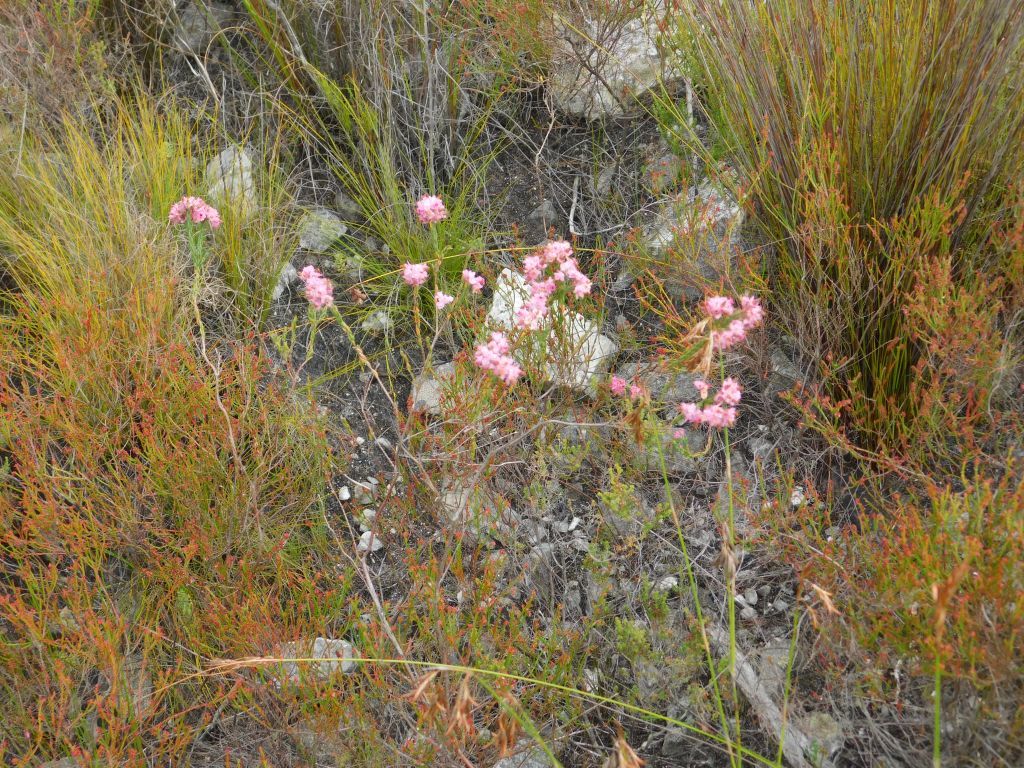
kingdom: Plantae
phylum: Tracheophyta
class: Magnoliopsida
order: Ericales
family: Ericaceae
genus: Erica
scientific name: Erica corifolia
